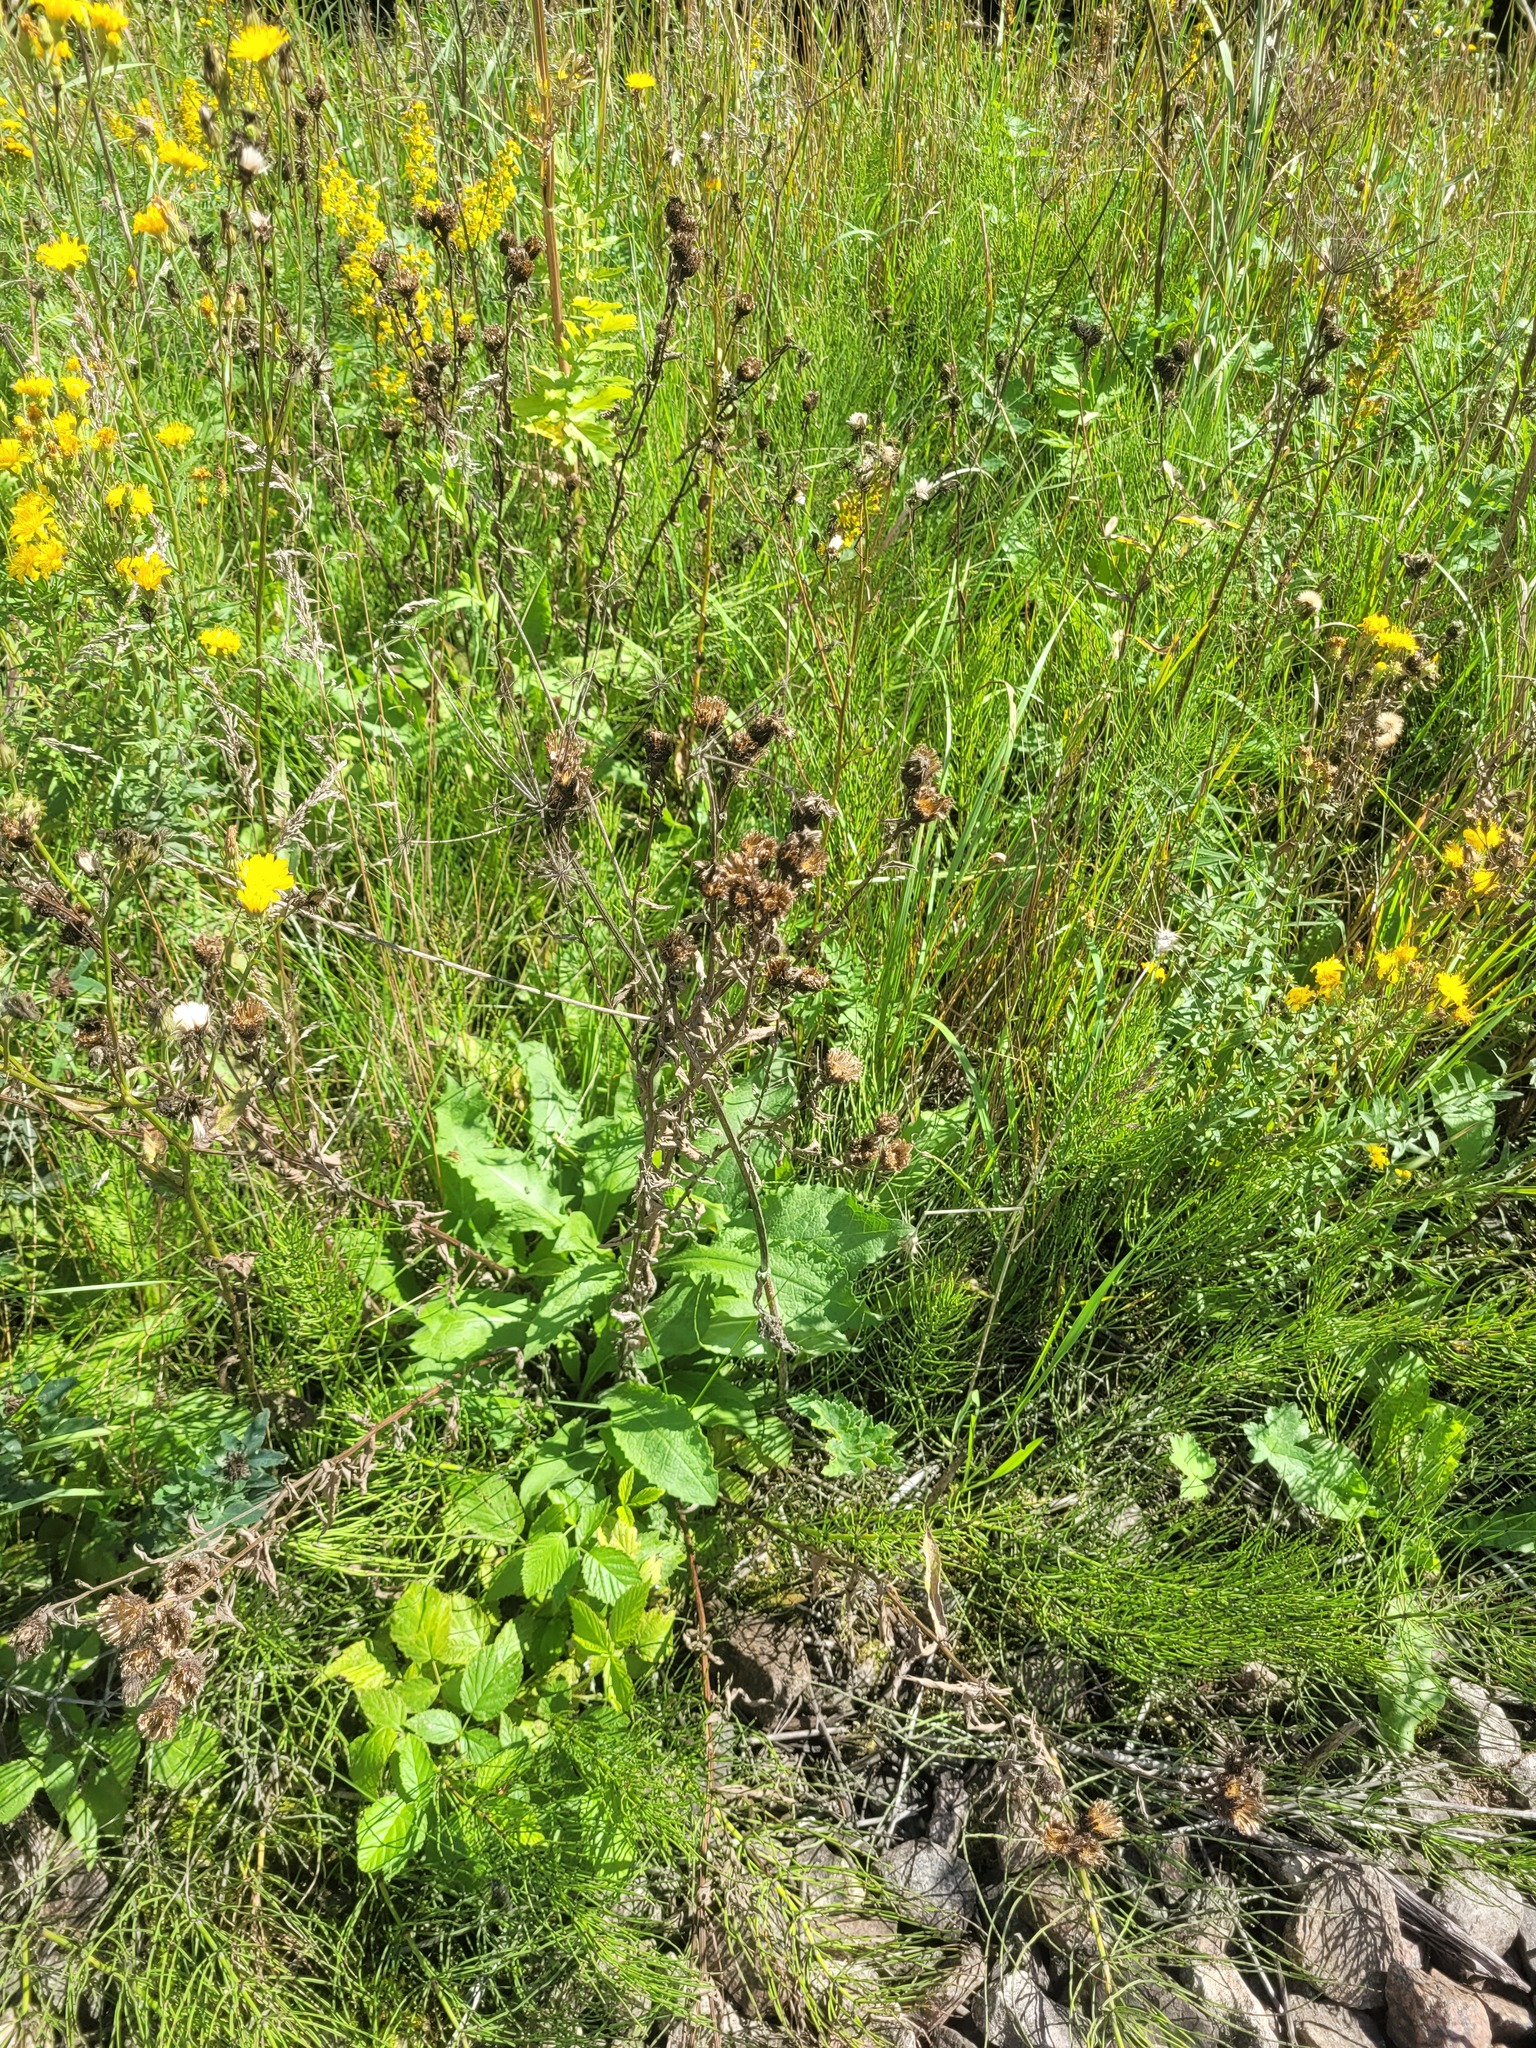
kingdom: Plantae
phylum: Tracheophyta
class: Magnoliopsida
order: Asterales
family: Asteraceae
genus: Centaurea
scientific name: Centaurea pseudophrygia
